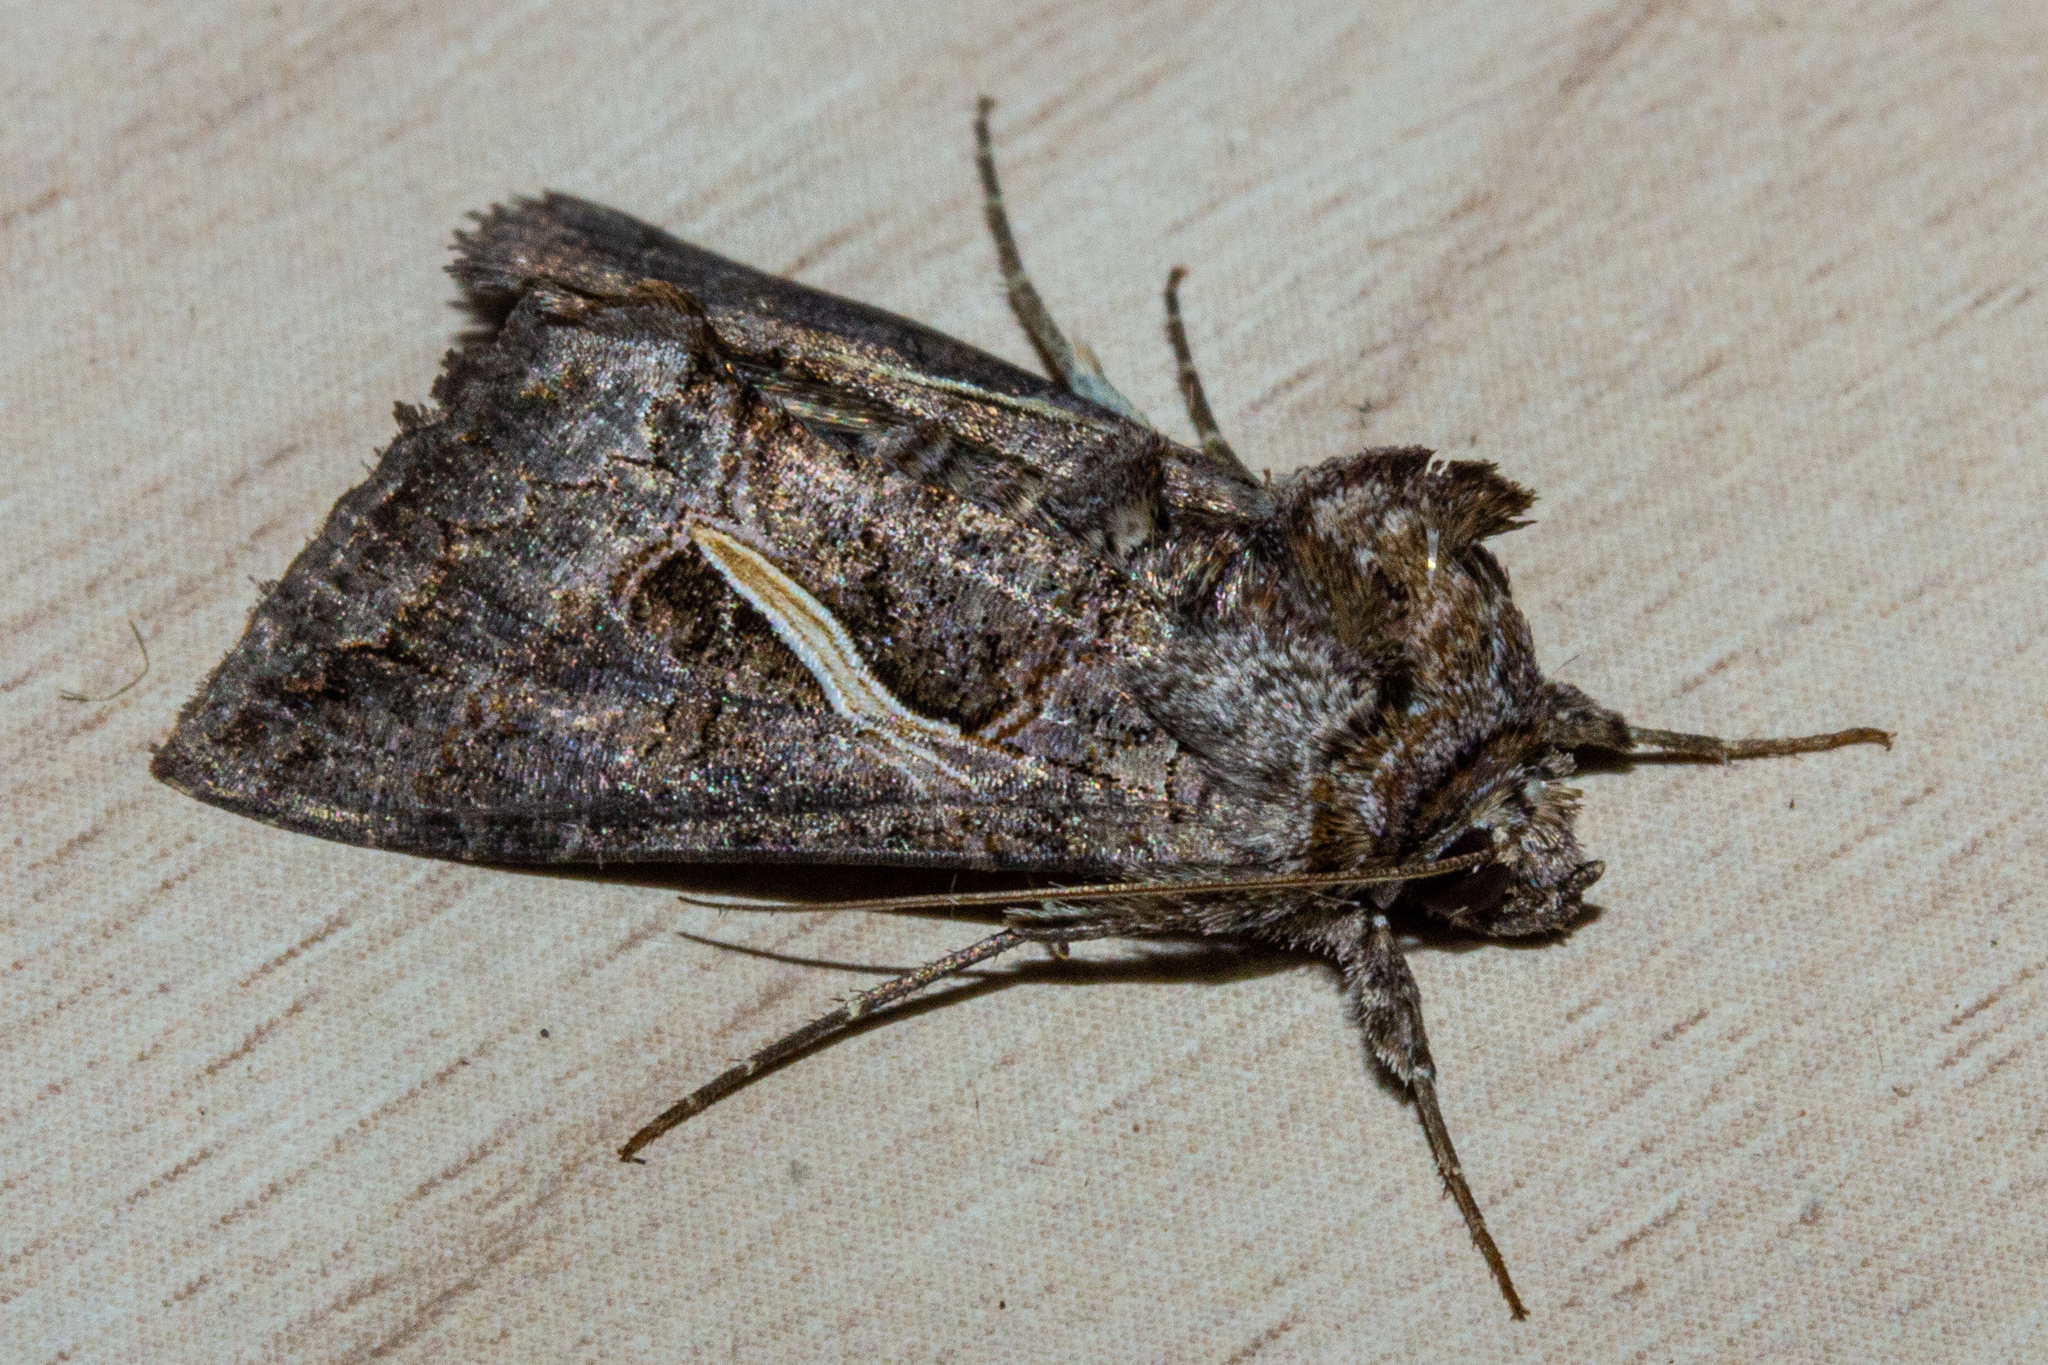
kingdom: Animalia
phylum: Arthropoda
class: Insecta
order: Lepidoptera
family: Noctuidae
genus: Ctenoplusia
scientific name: Ctenoplusia albostriata
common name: Moth
